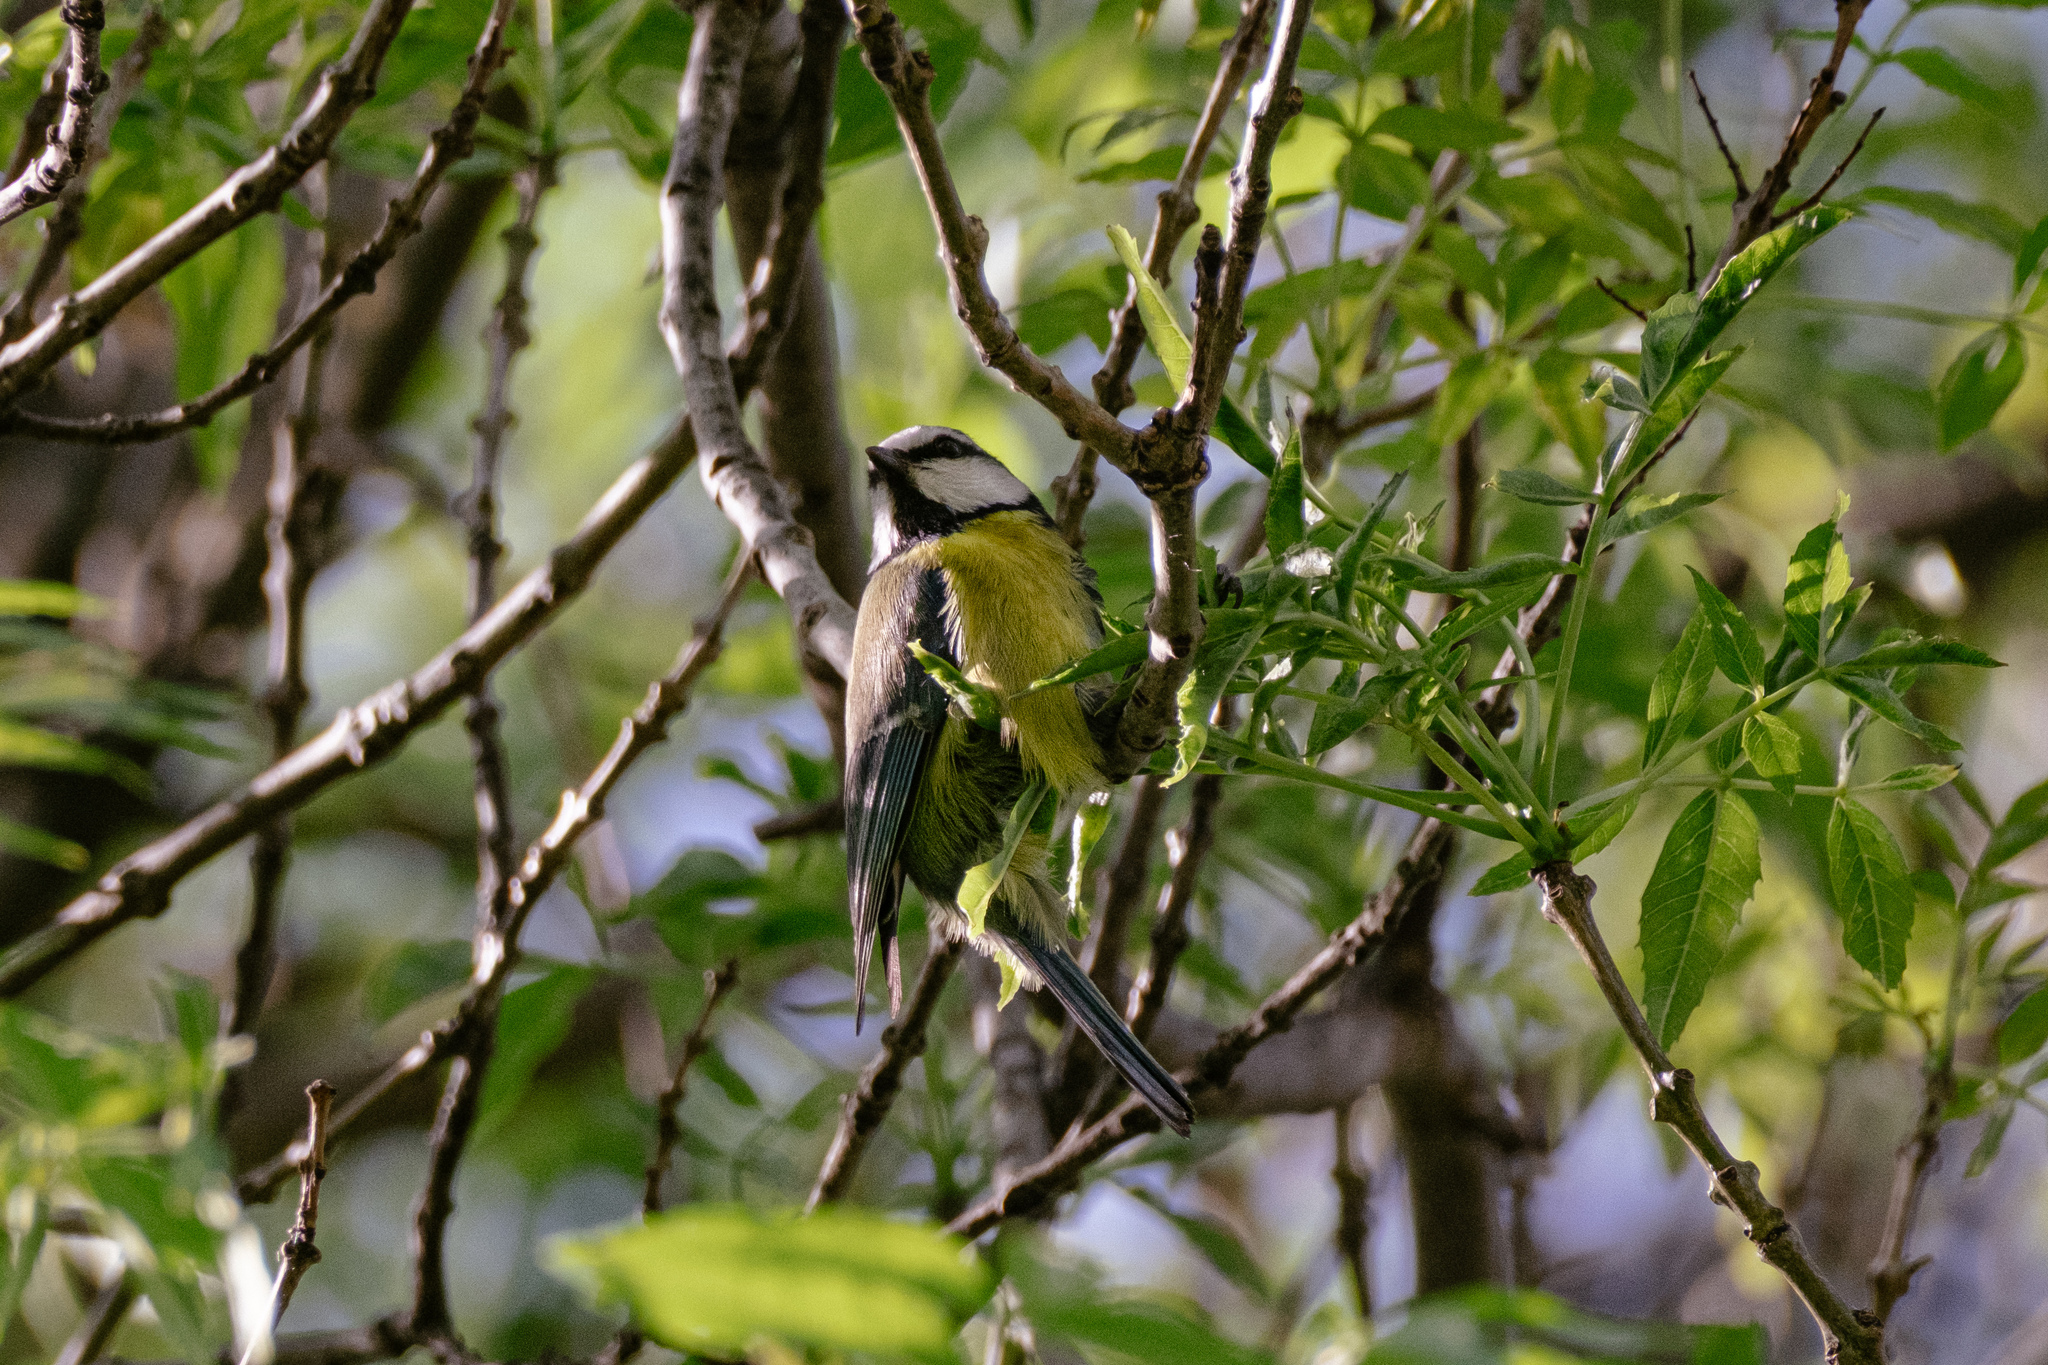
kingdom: Animalia
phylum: Chordata
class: Aves
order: Passeriformes
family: Paridae
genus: Cyanistes
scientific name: Cyanistes caeruleus
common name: Eurasian blue tit
